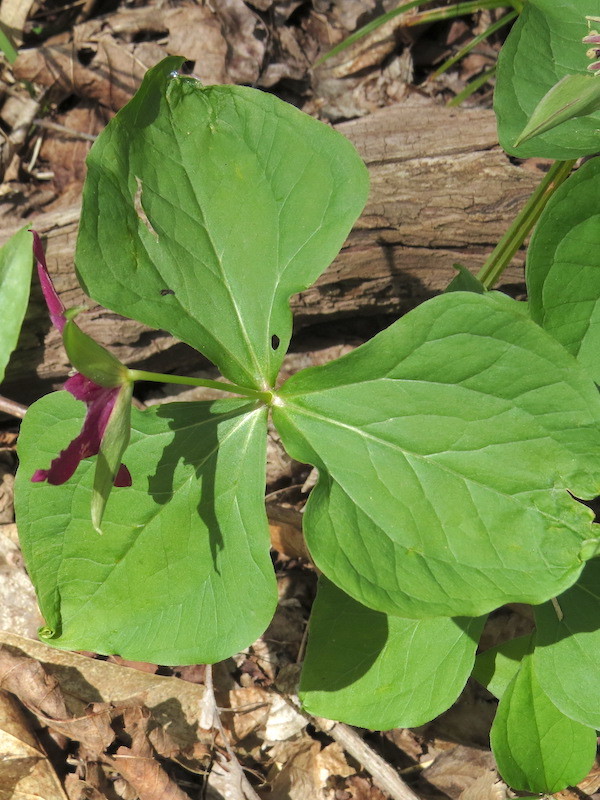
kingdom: Plantae
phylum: Tracheophyta
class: Liliopsida
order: Liliales
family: Melanthiaceae
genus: Trillium
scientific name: Trillium erectum
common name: Purple trillium
